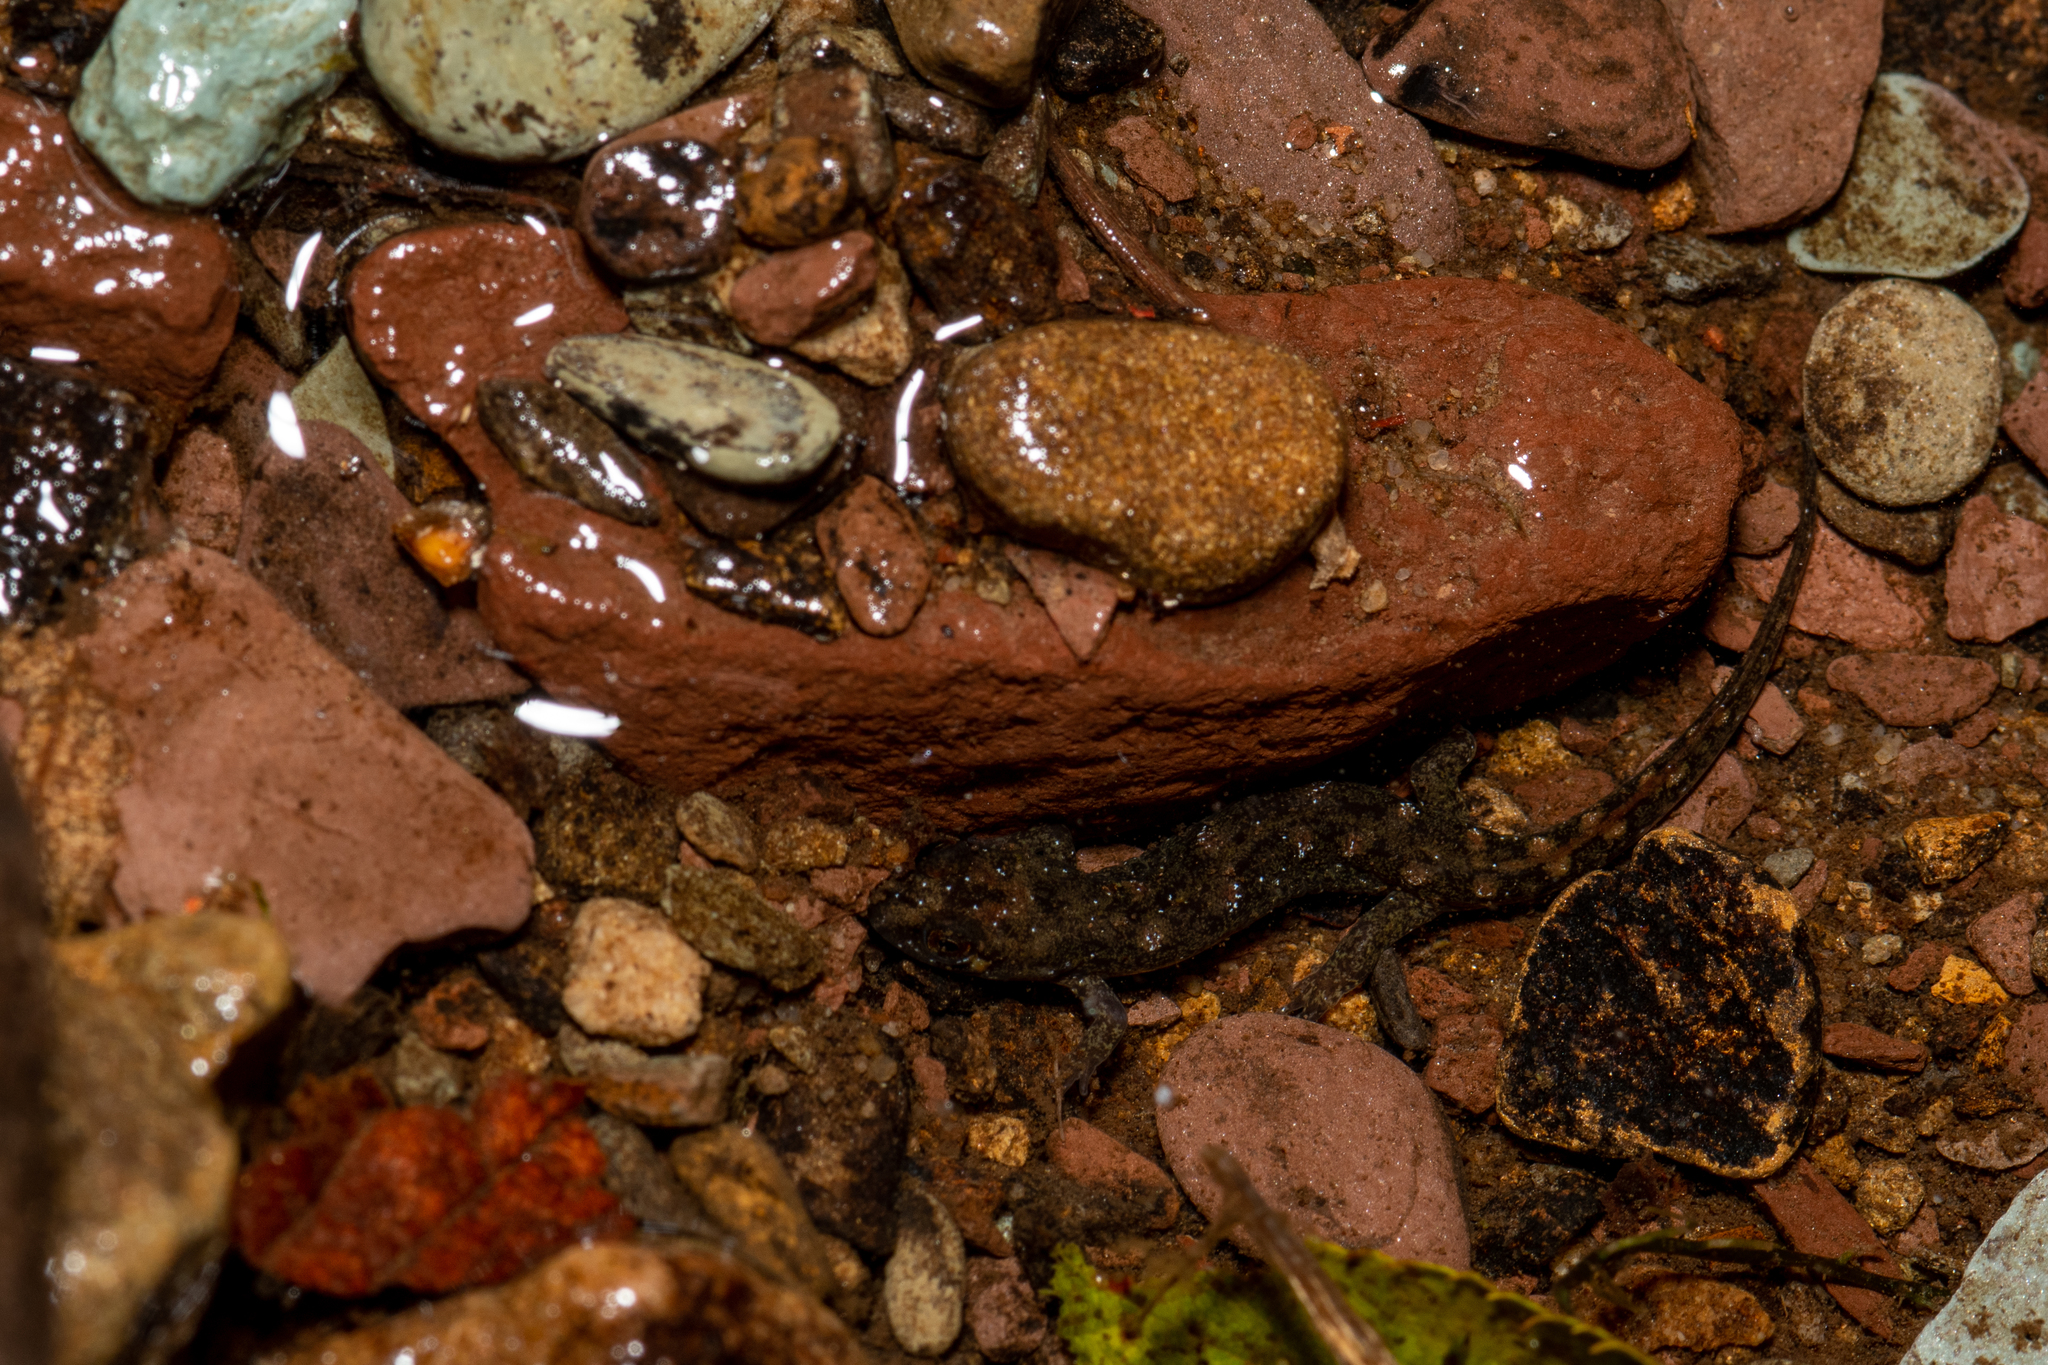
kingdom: Animalia
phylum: Chordata
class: Amphibia
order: Caudata
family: Plethodontidae
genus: Desmognathus
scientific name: Desmognathus monticola
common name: Seal salamander
